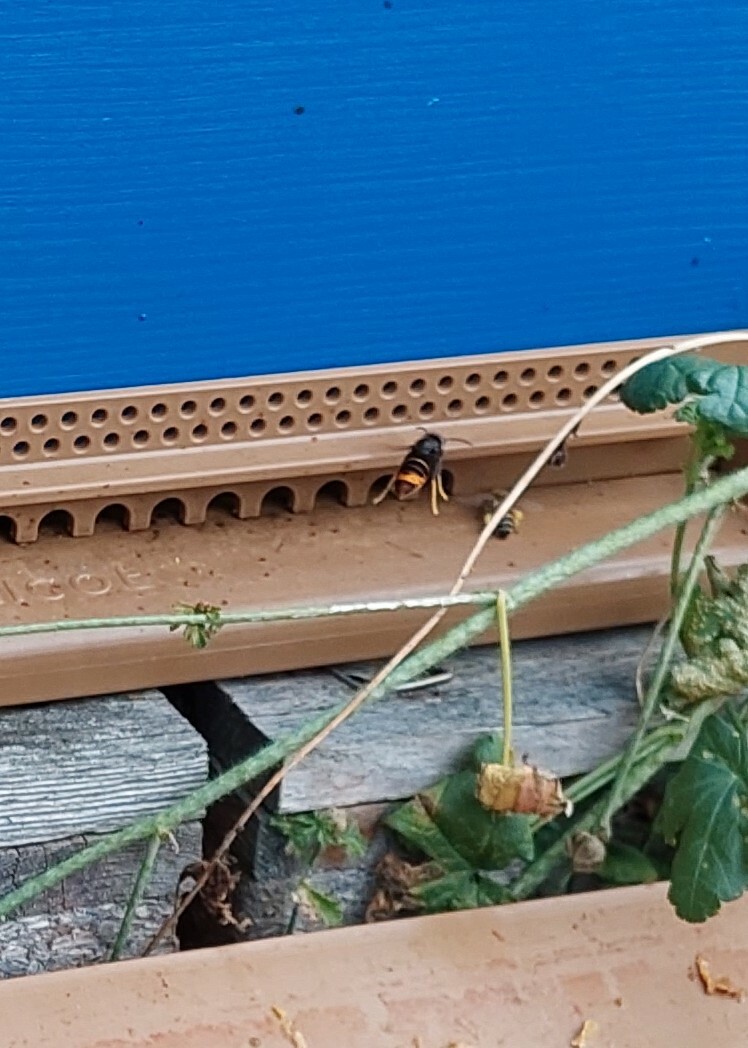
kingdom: Animalia
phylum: Arthropoda
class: Insecta
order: Hymenoptera
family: Vespidae
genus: Vespa
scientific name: Vespa velutina
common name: Asian hornet
